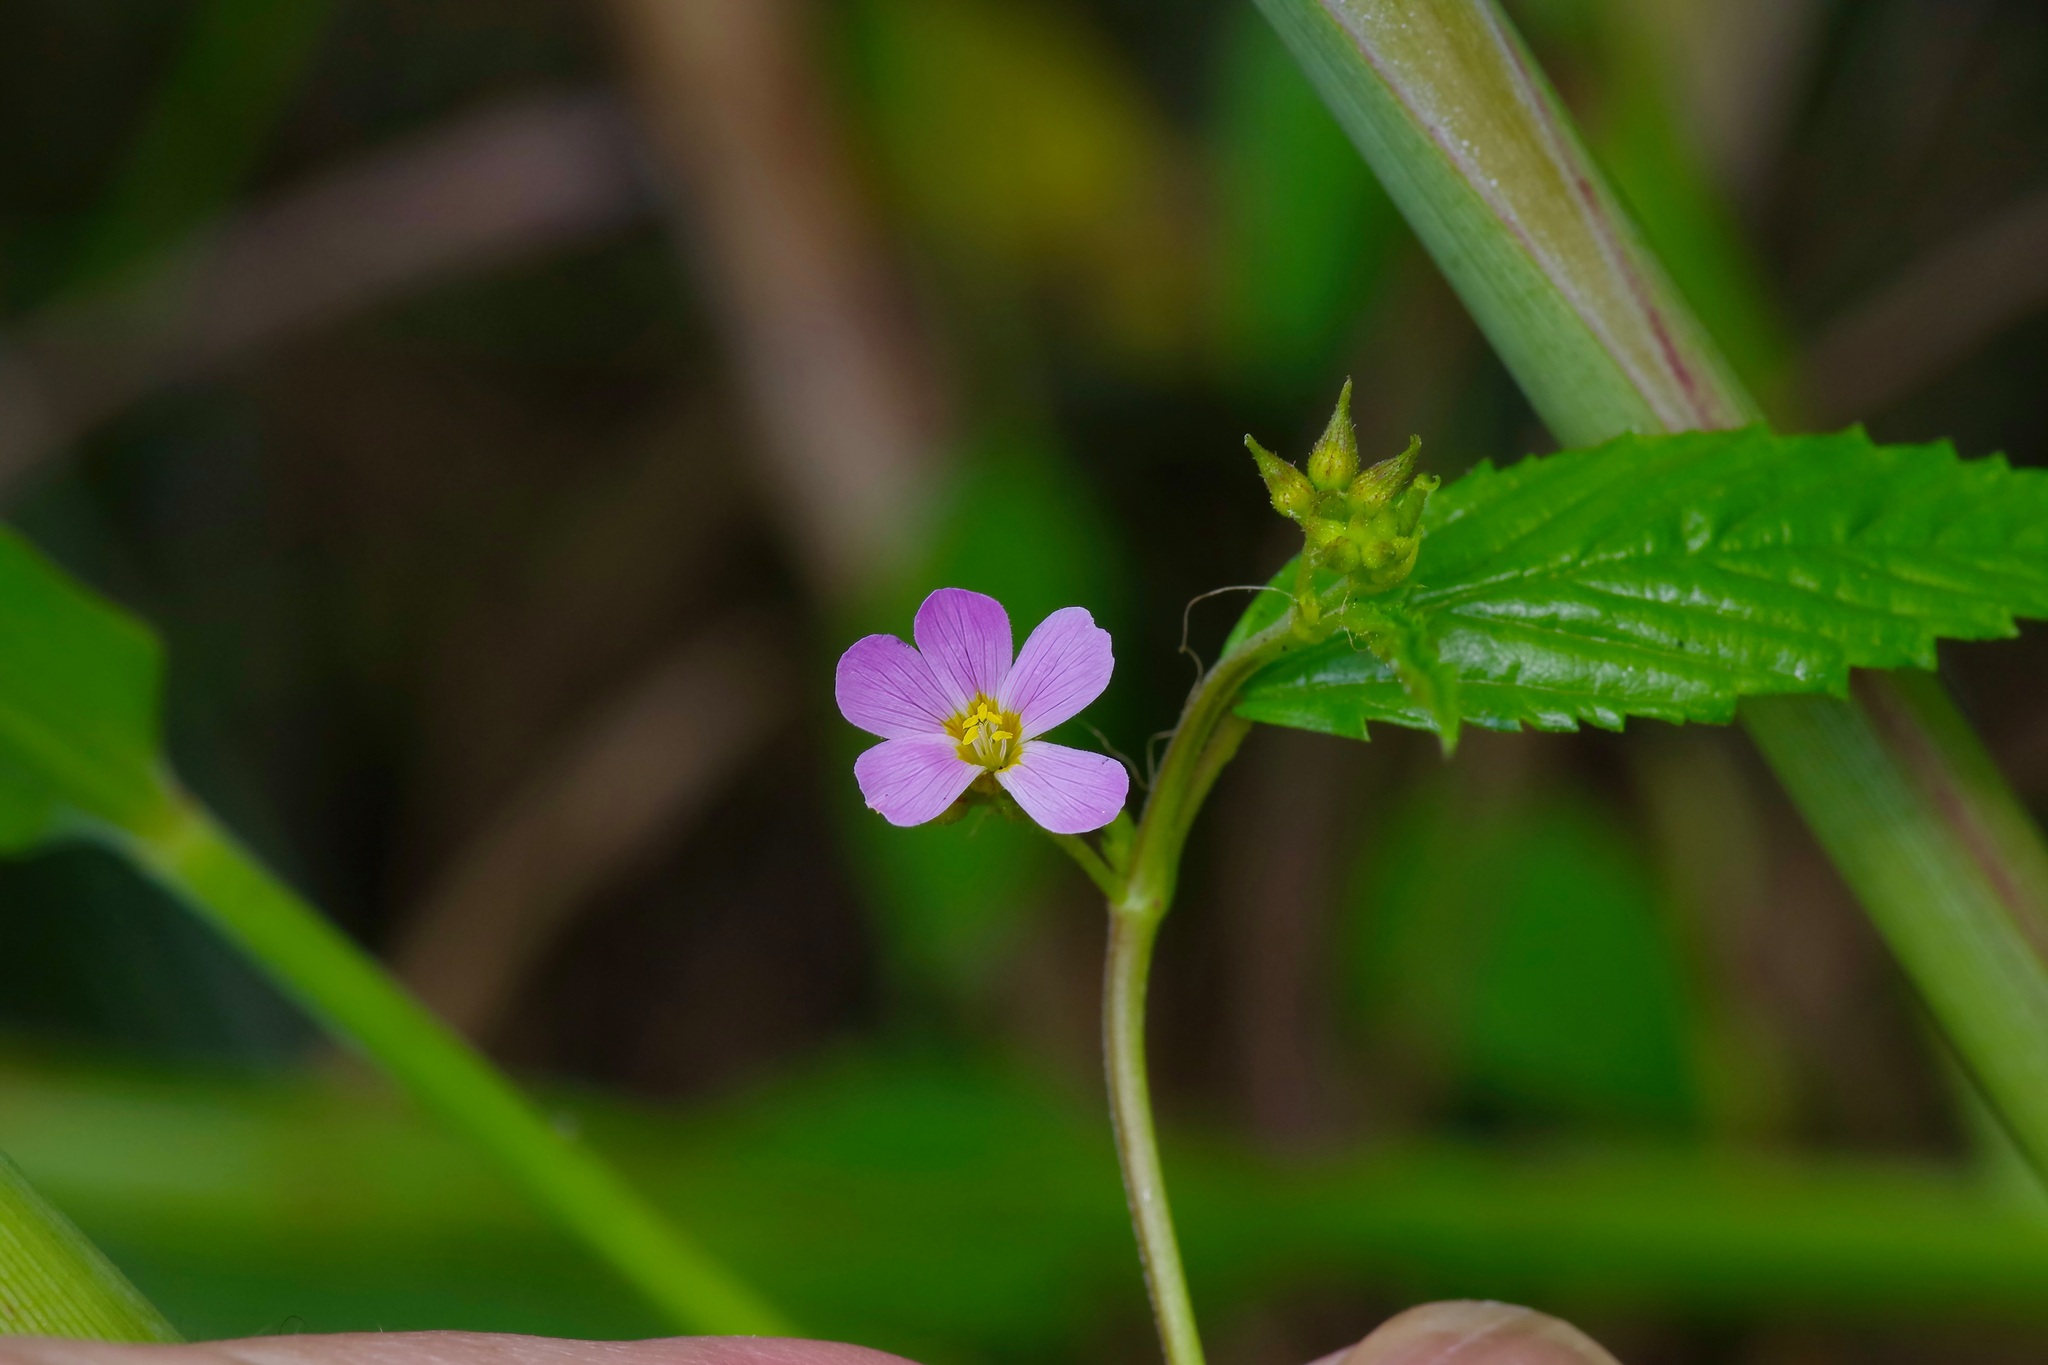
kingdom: Plantae
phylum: Tracheophyta
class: Magnoliopsida
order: Malvales
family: Malvaceae
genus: Melochia
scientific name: Melochia pyramidata
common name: Pyramidflower
